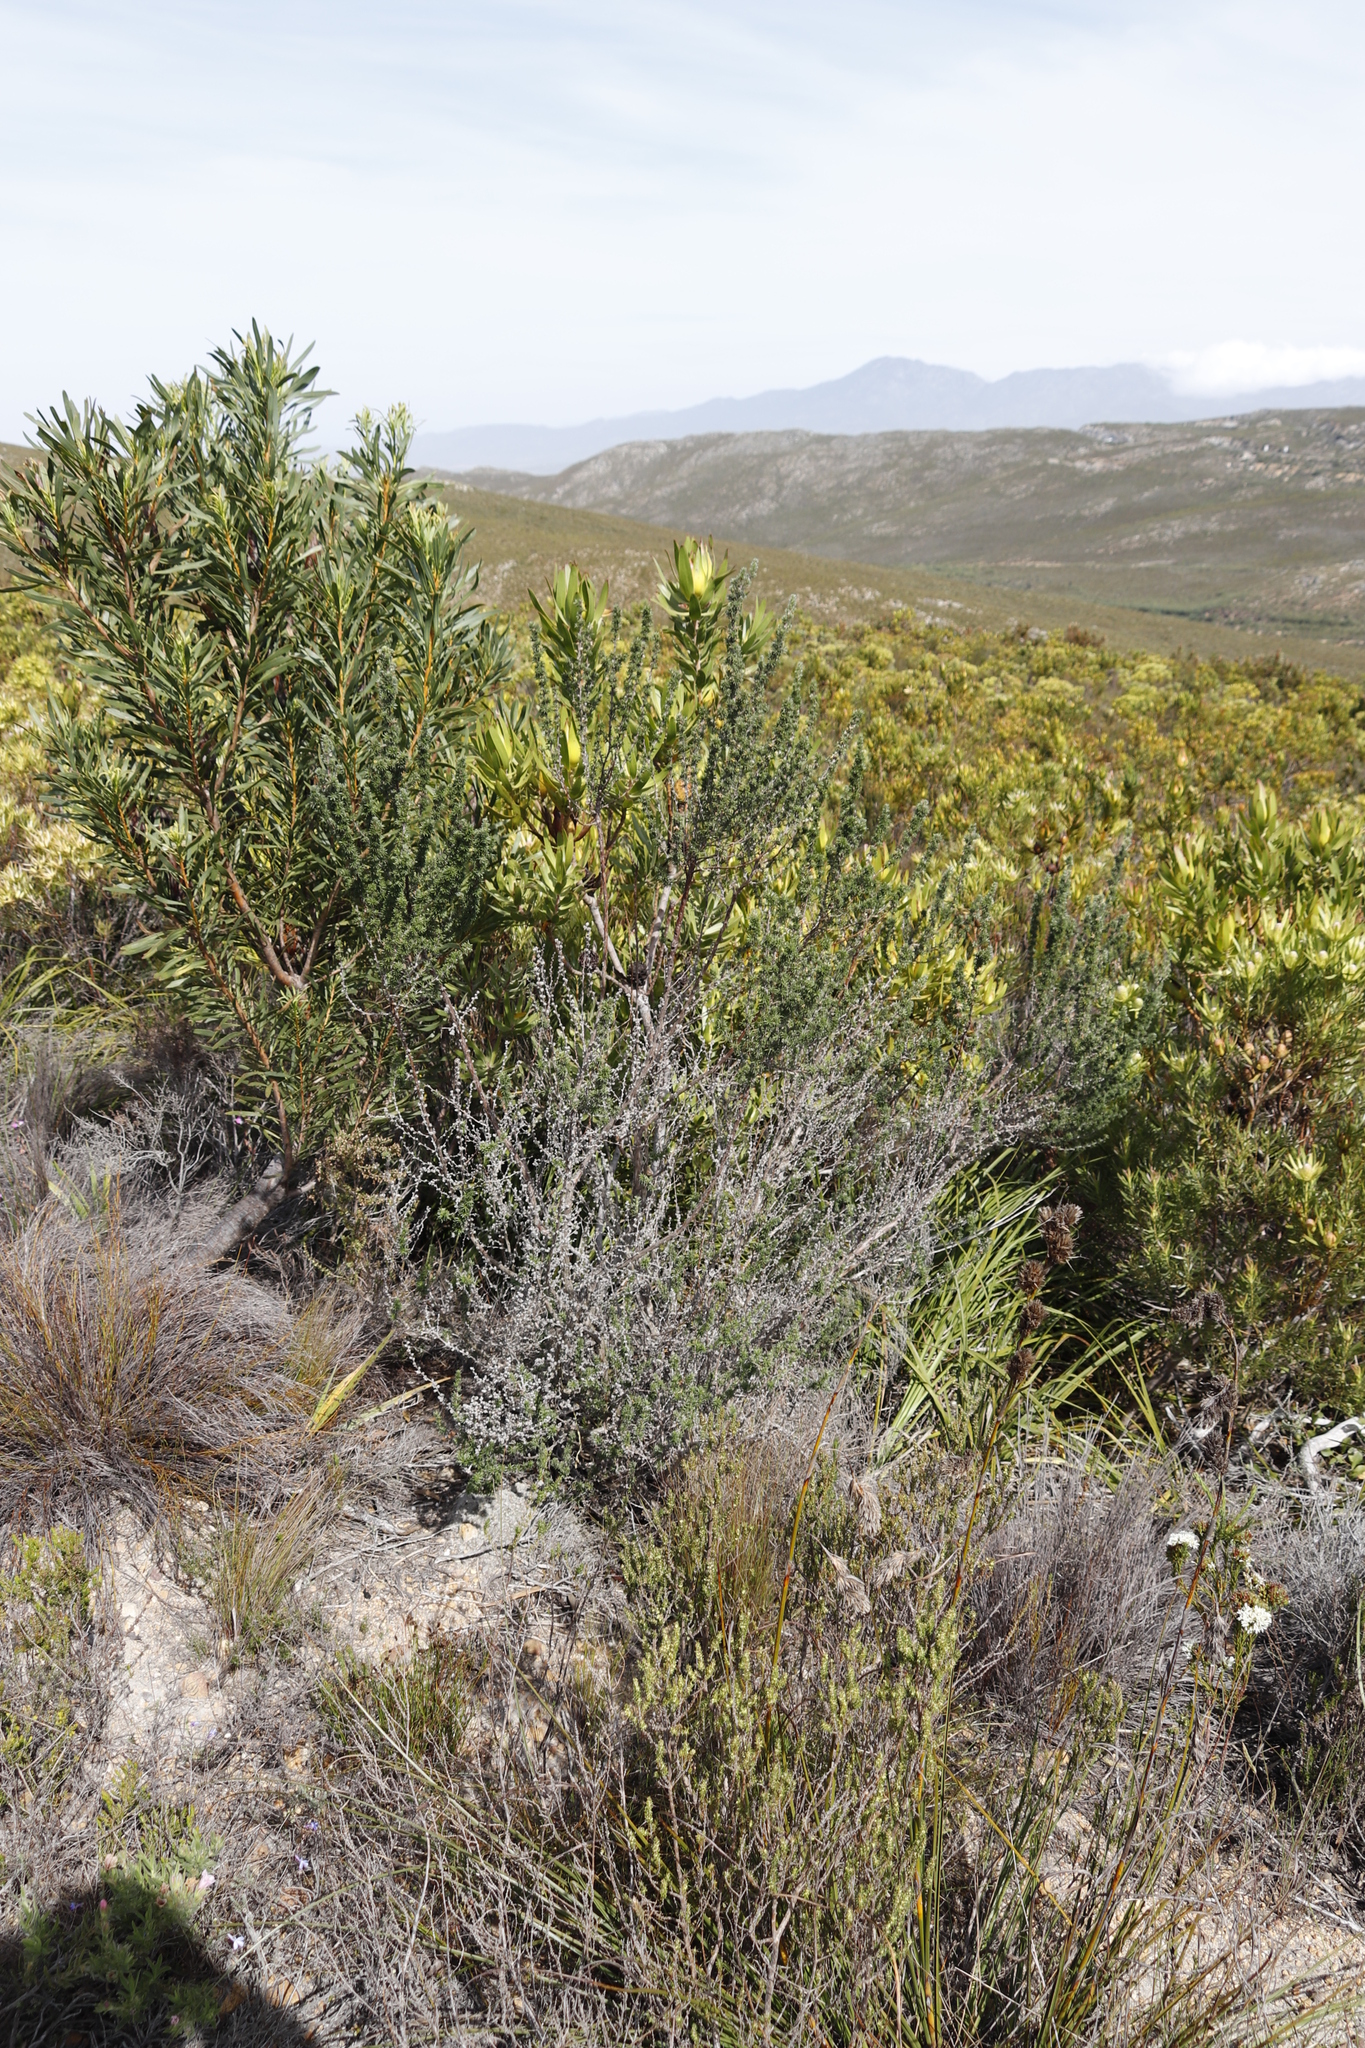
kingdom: Plantae
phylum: Tracheophyta
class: Magnoliopsida
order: Rosales
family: Rosaceae
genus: Cliffortia
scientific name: Cliffortia stricta
